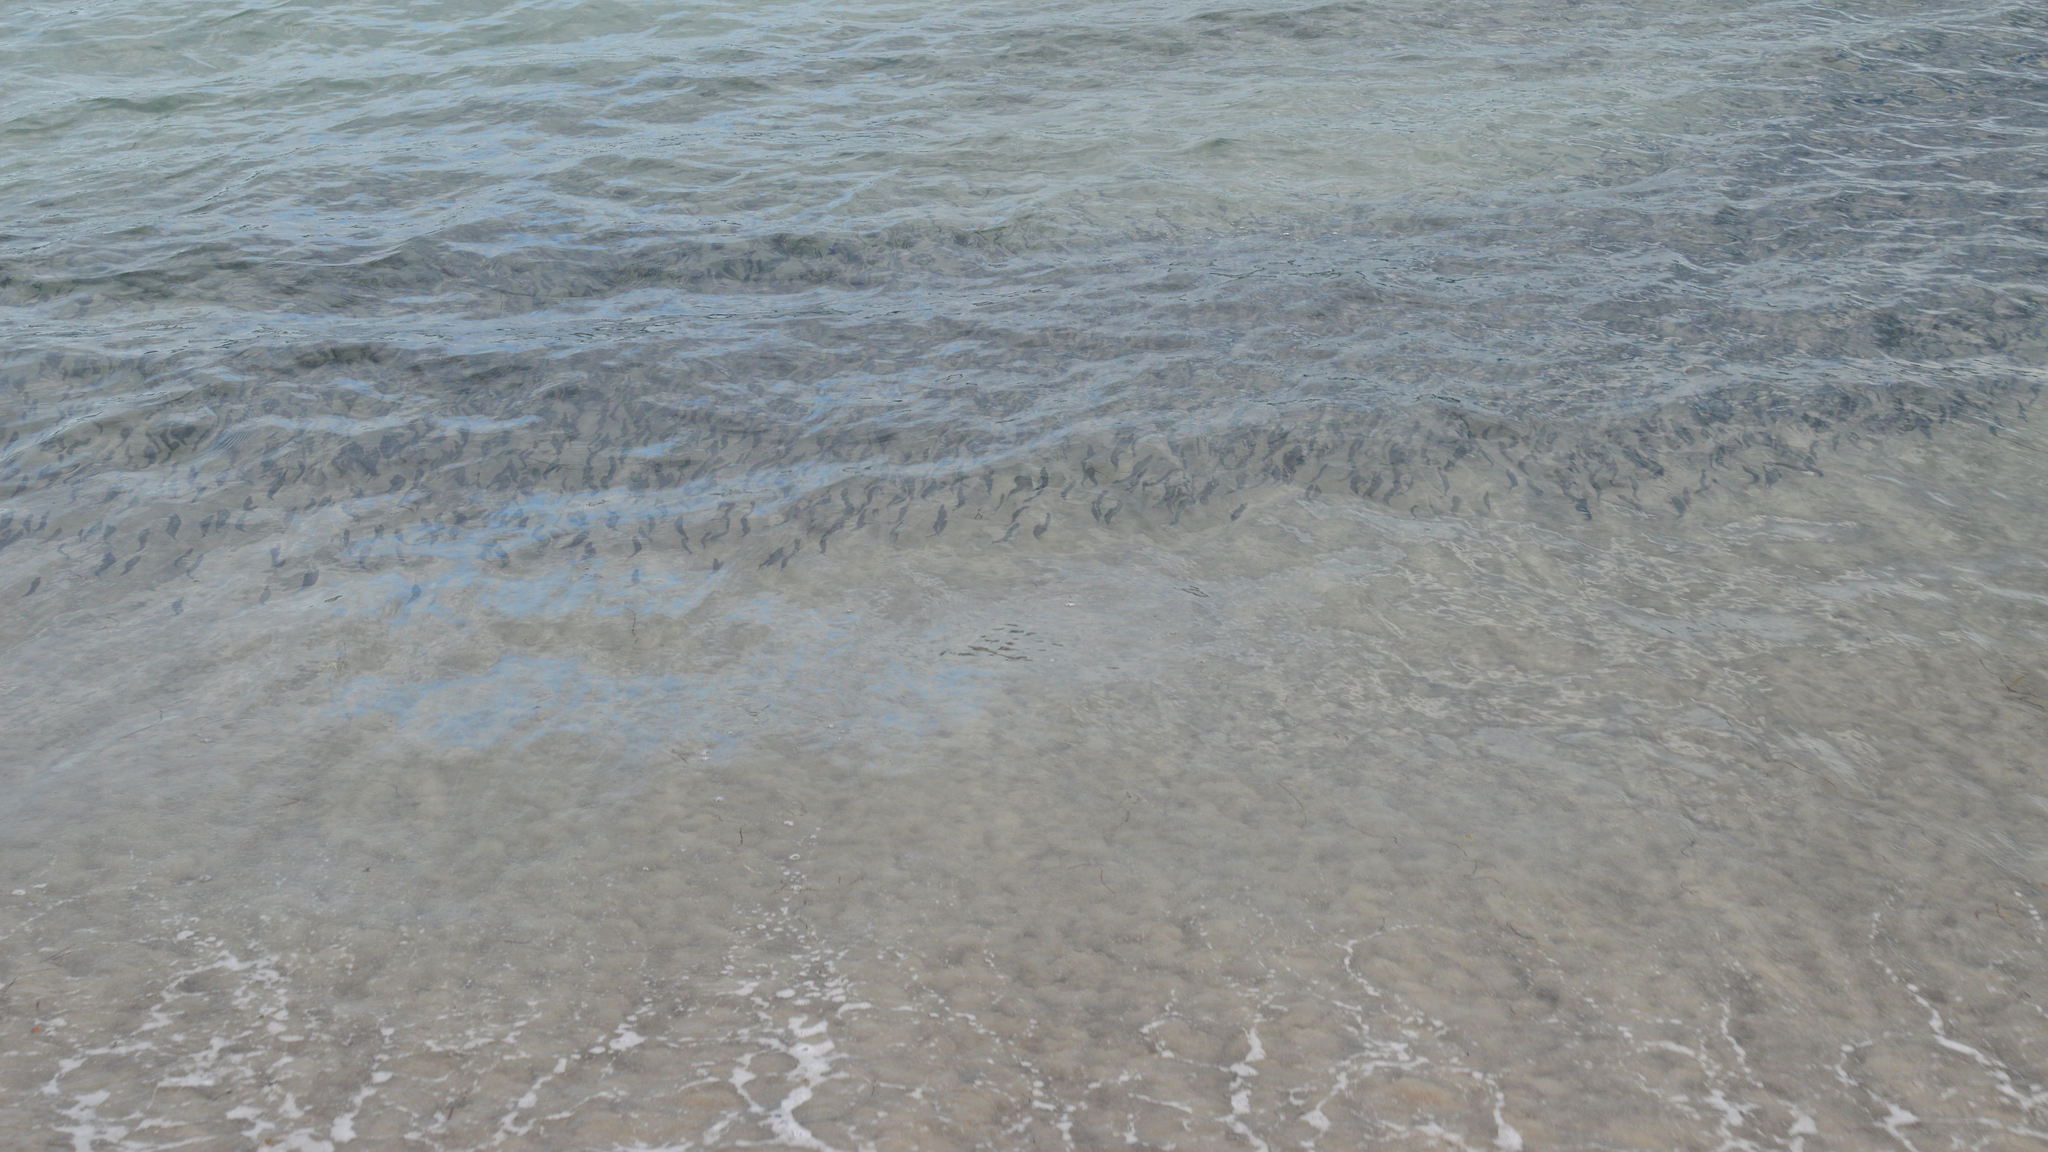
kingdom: Animalia
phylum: Chordata
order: Osmeriformes
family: Osmeridae
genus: Mallotus
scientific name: Mallotus villosus
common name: Capelin
